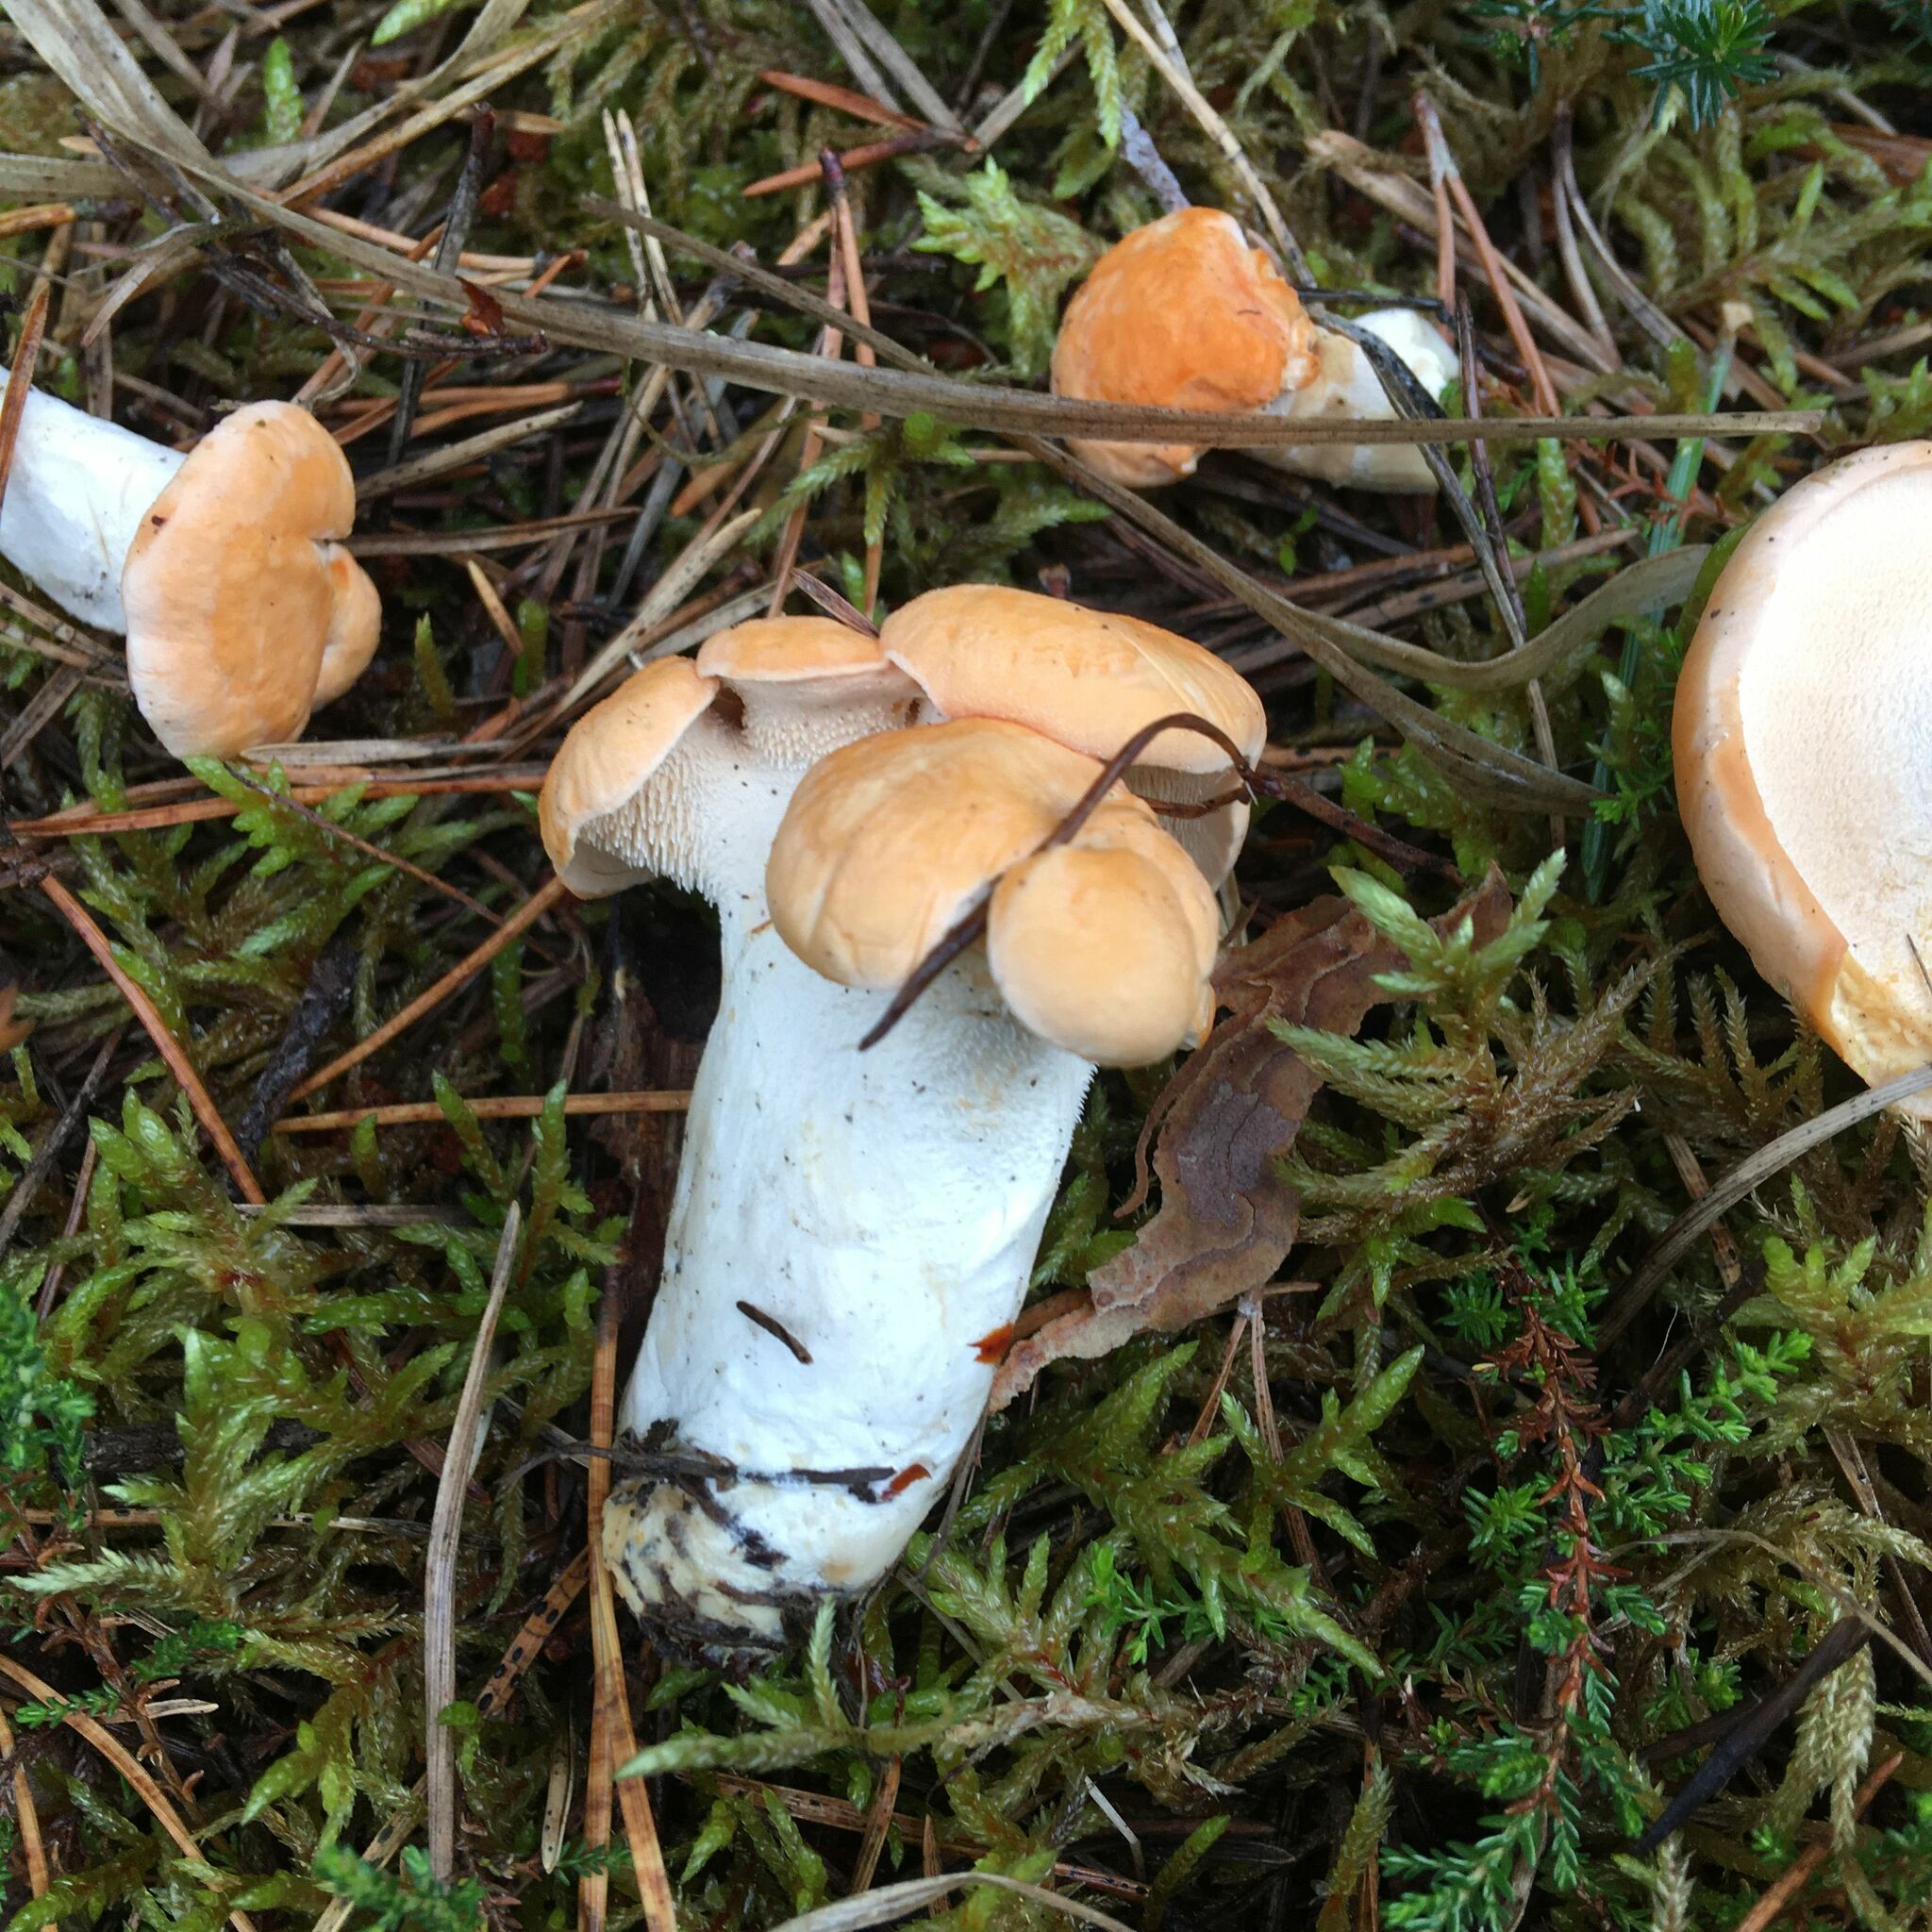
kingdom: Fungi
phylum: Basidiomycota
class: Agaricomycetes
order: Cantharellales
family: Hydnaceae
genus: Hydnum
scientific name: Hydnum rufescens
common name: Terracotta hedgehog
